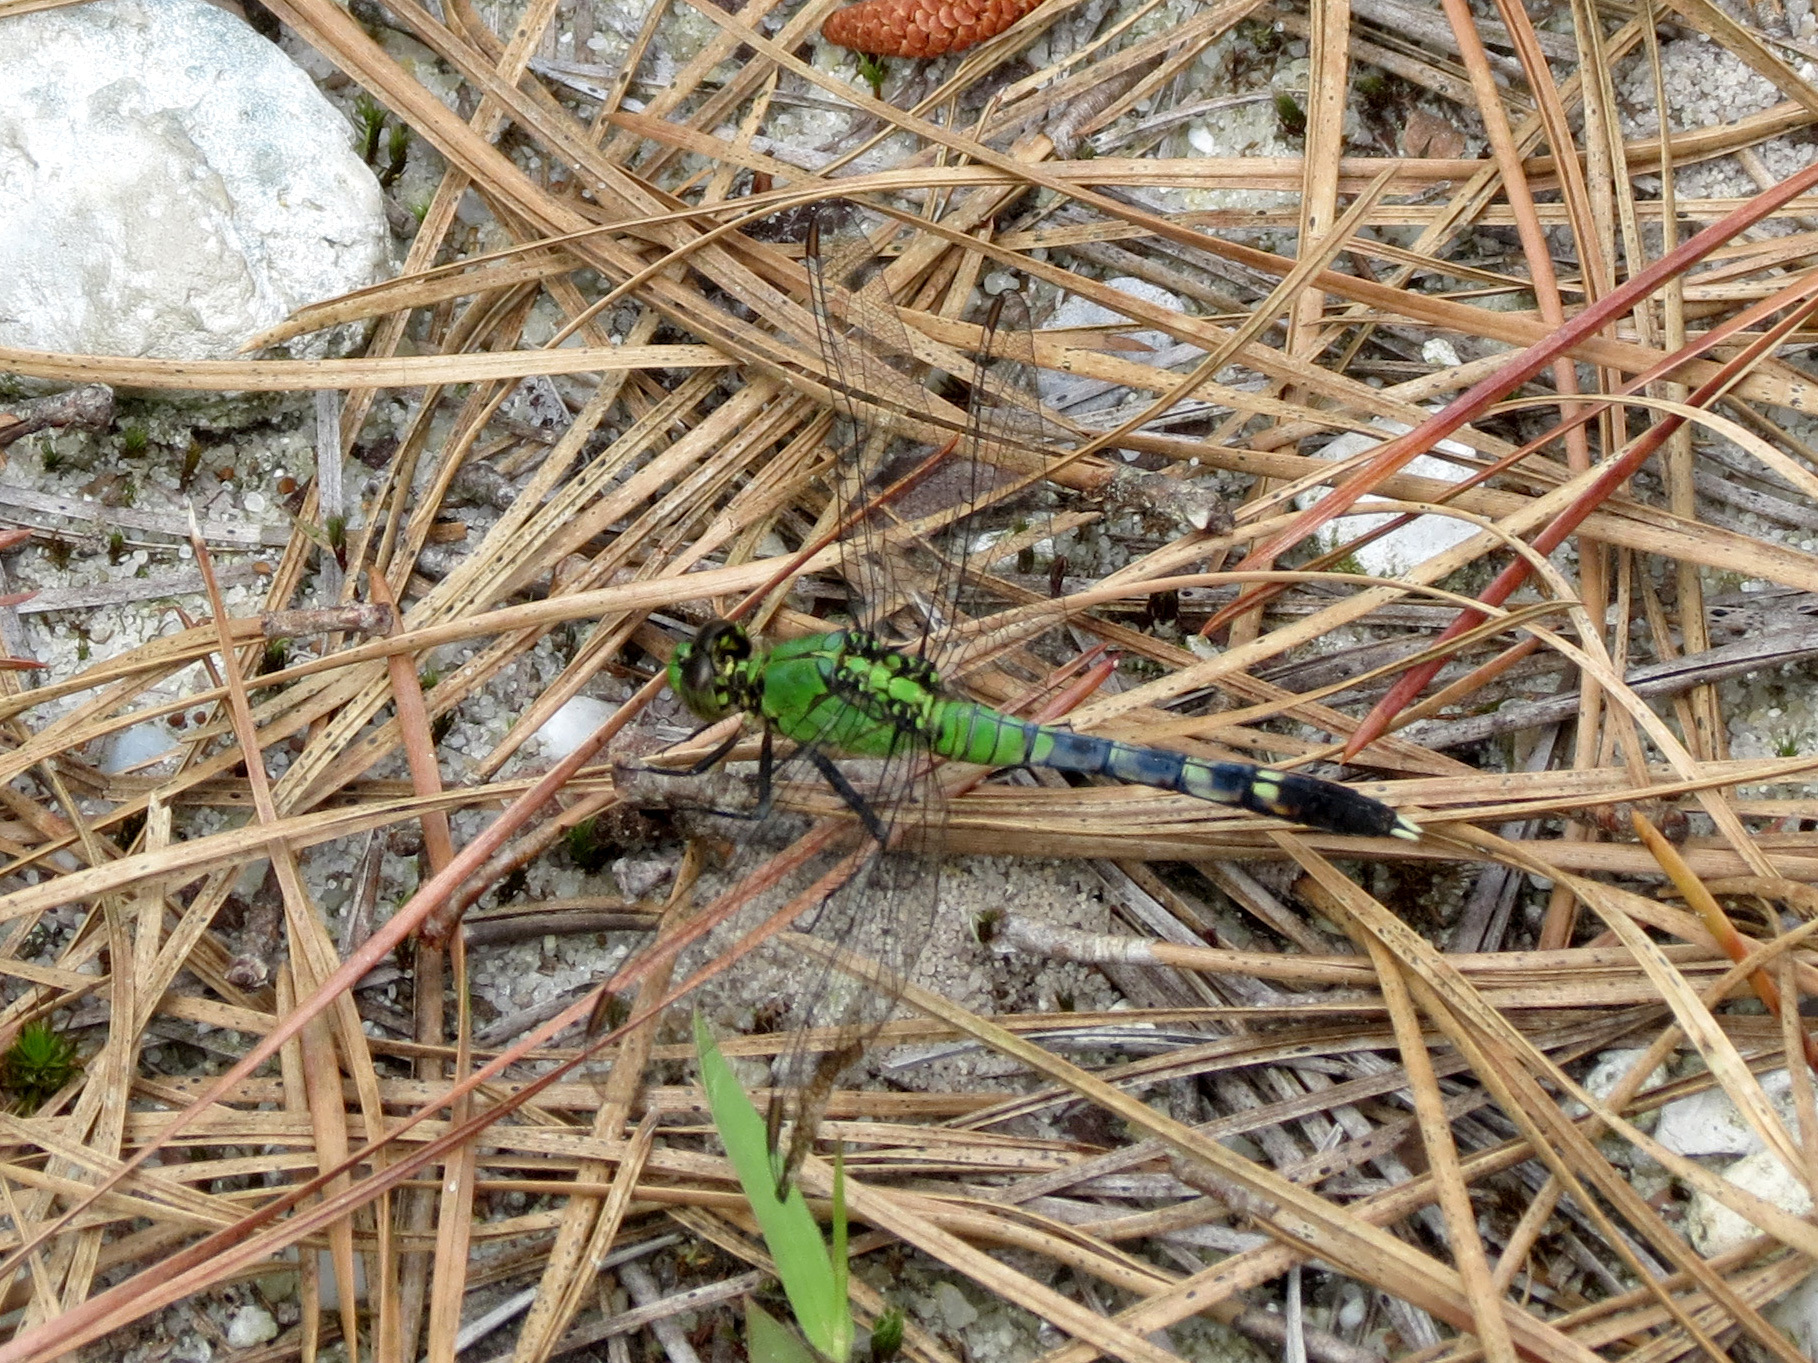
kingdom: Animalia
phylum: Arthropoda
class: Insecta
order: Odonata
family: Libellulidae
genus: Erythemis
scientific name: Erythemis simplicicollis
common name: Eastern pondhawk
